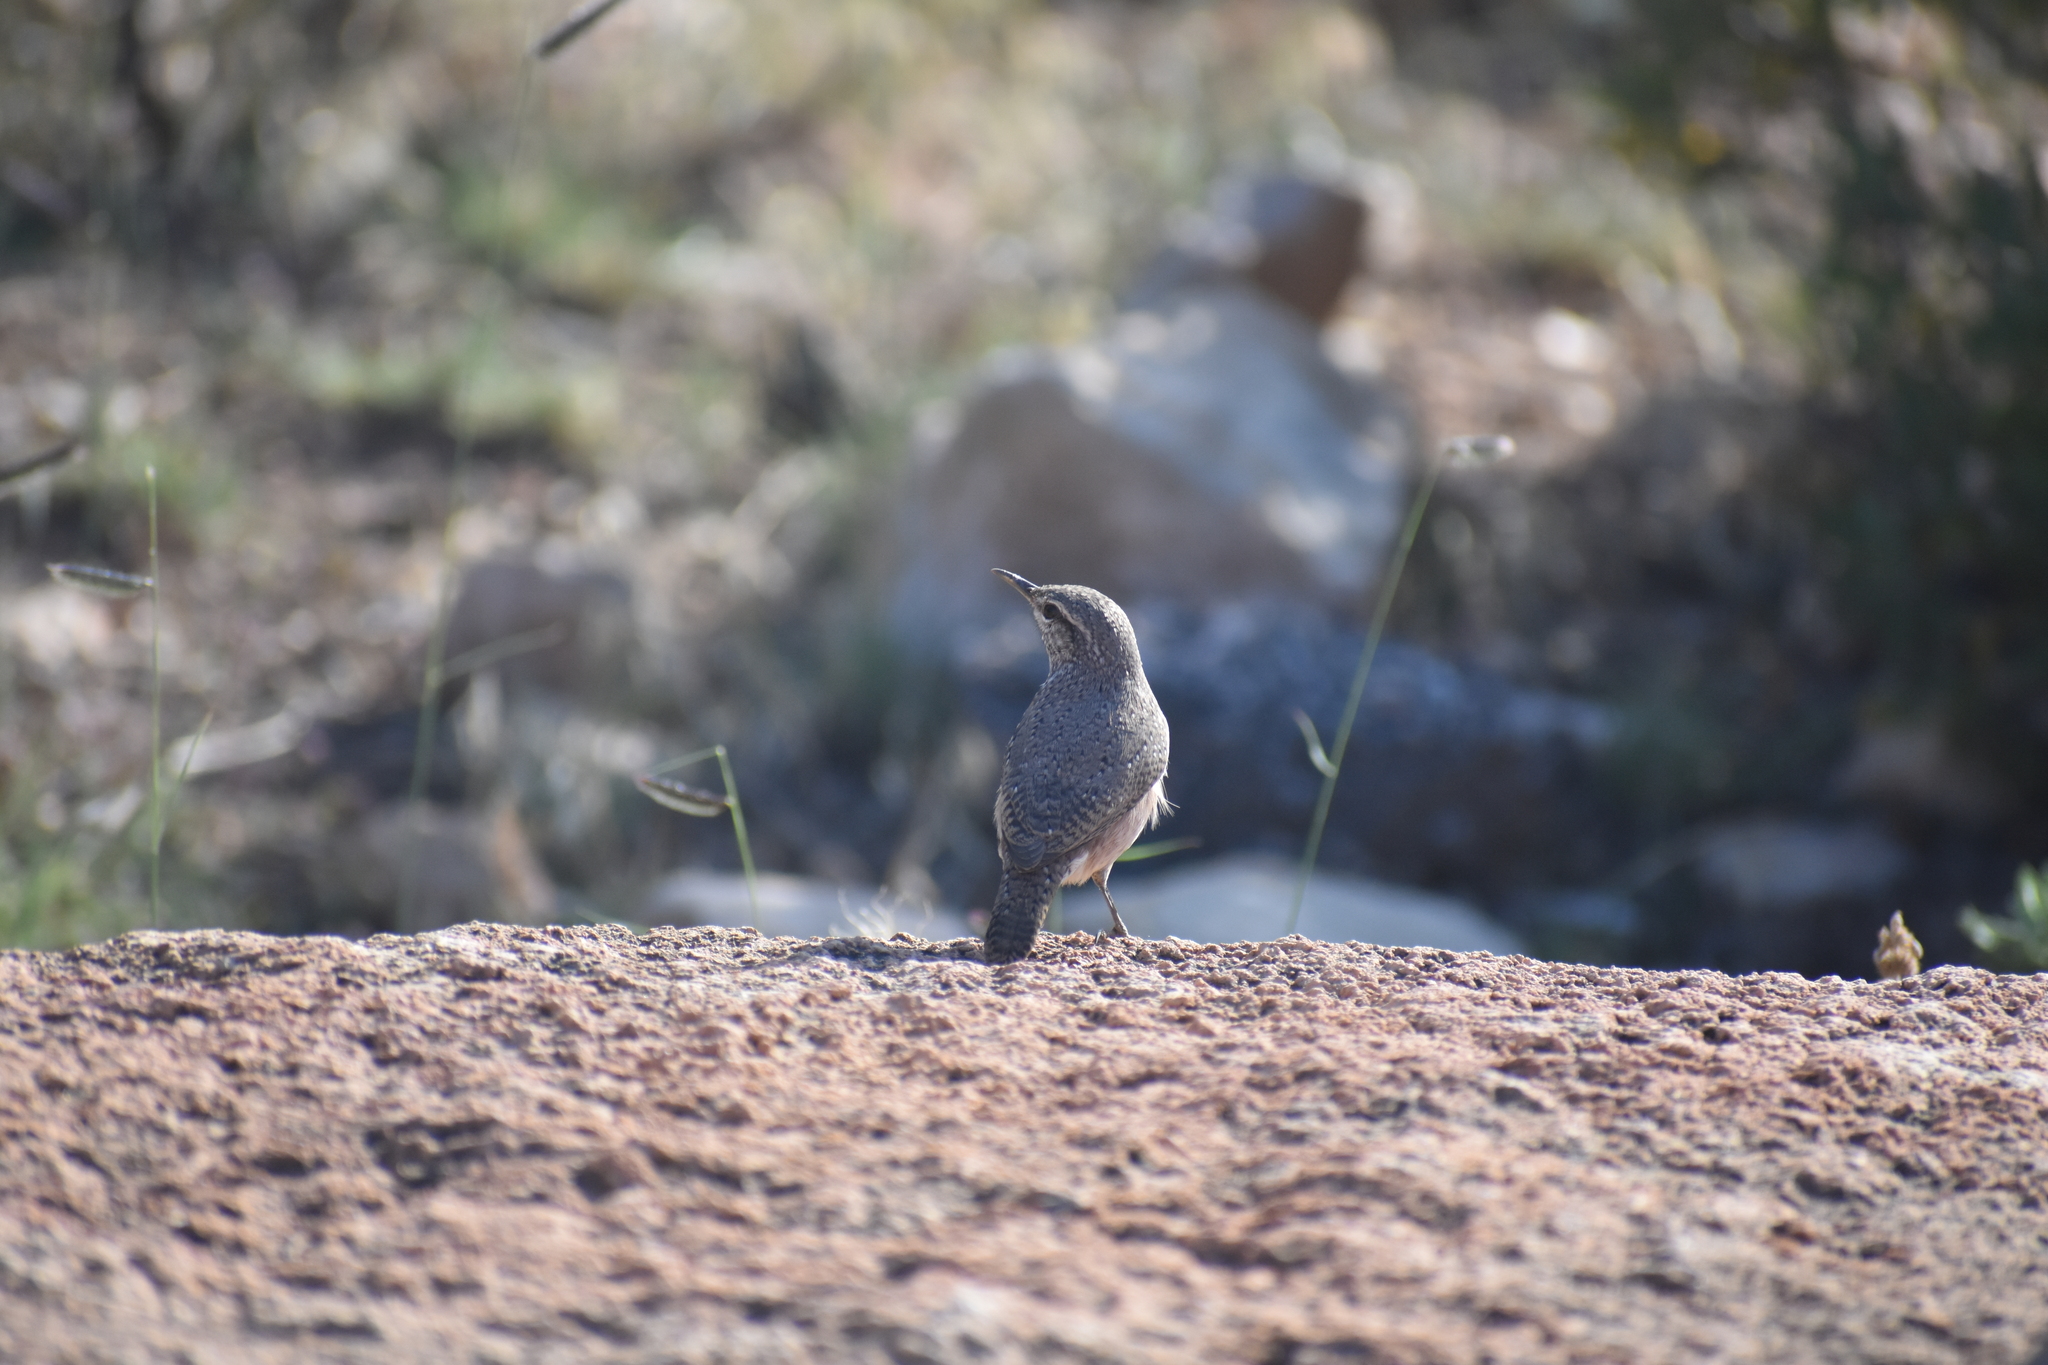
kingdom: Animalia
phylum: Chordata
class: Aves
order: Passeriformes
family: Troglodytidae
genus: Salpinctes
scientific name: Salpinctes obsoletus
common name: Rock wren
